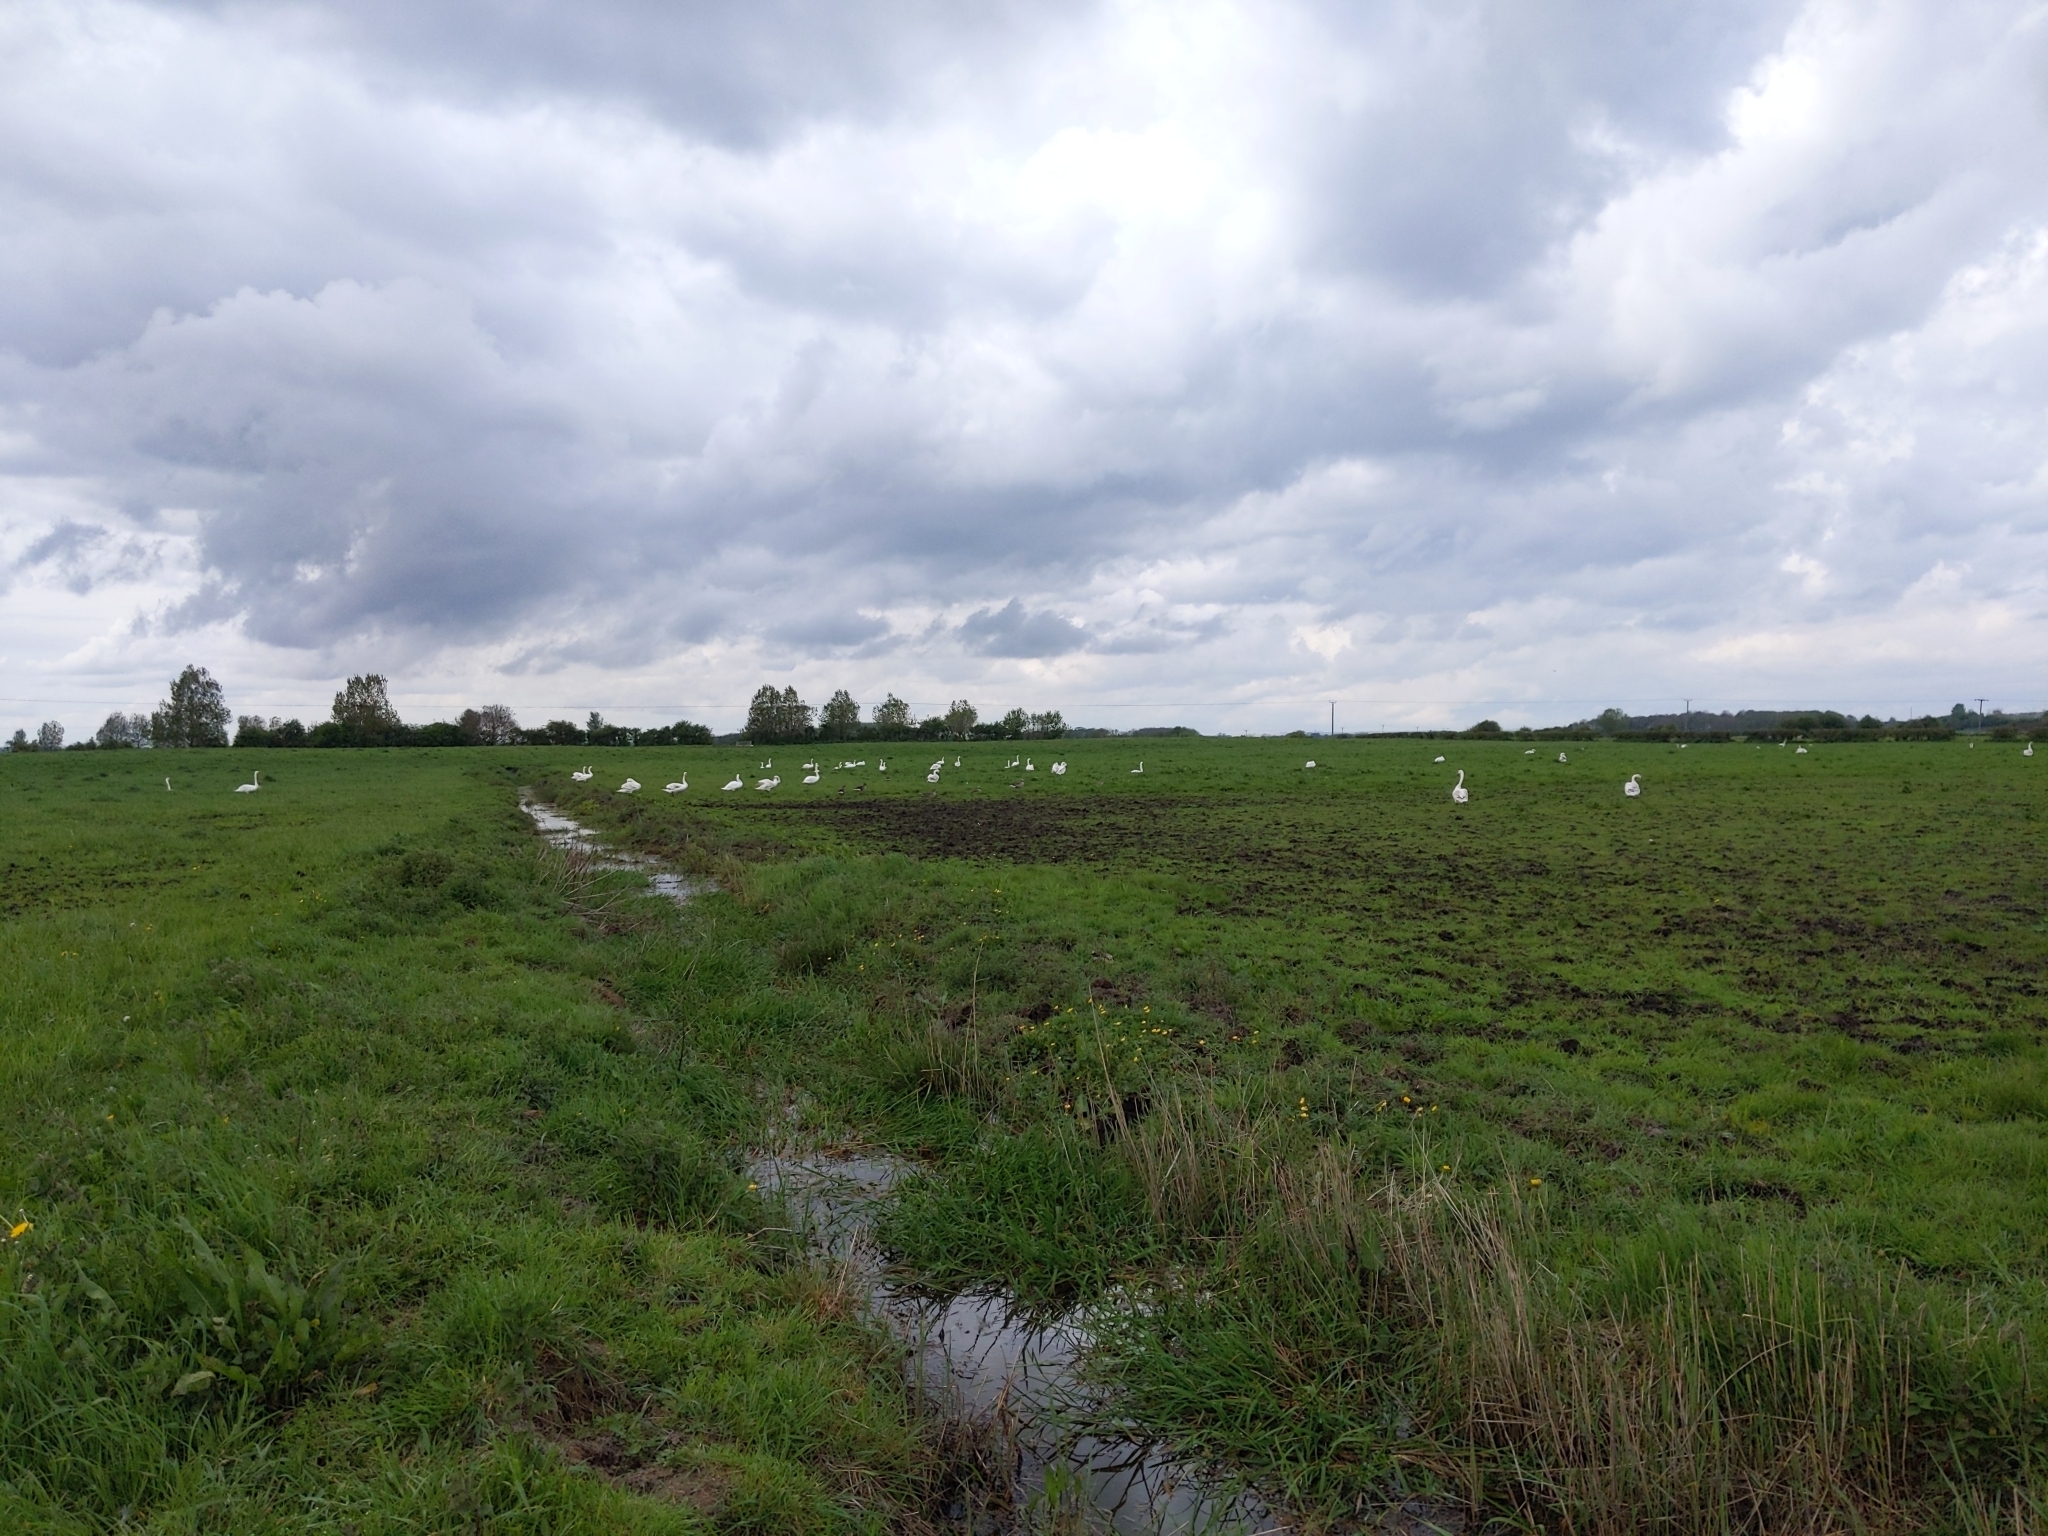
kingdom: Animalia
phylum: Chordata
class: Aves
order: Anseriformes
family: Anatidae
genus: Cygnus
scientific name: Cygnus olor
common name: Mute swan
